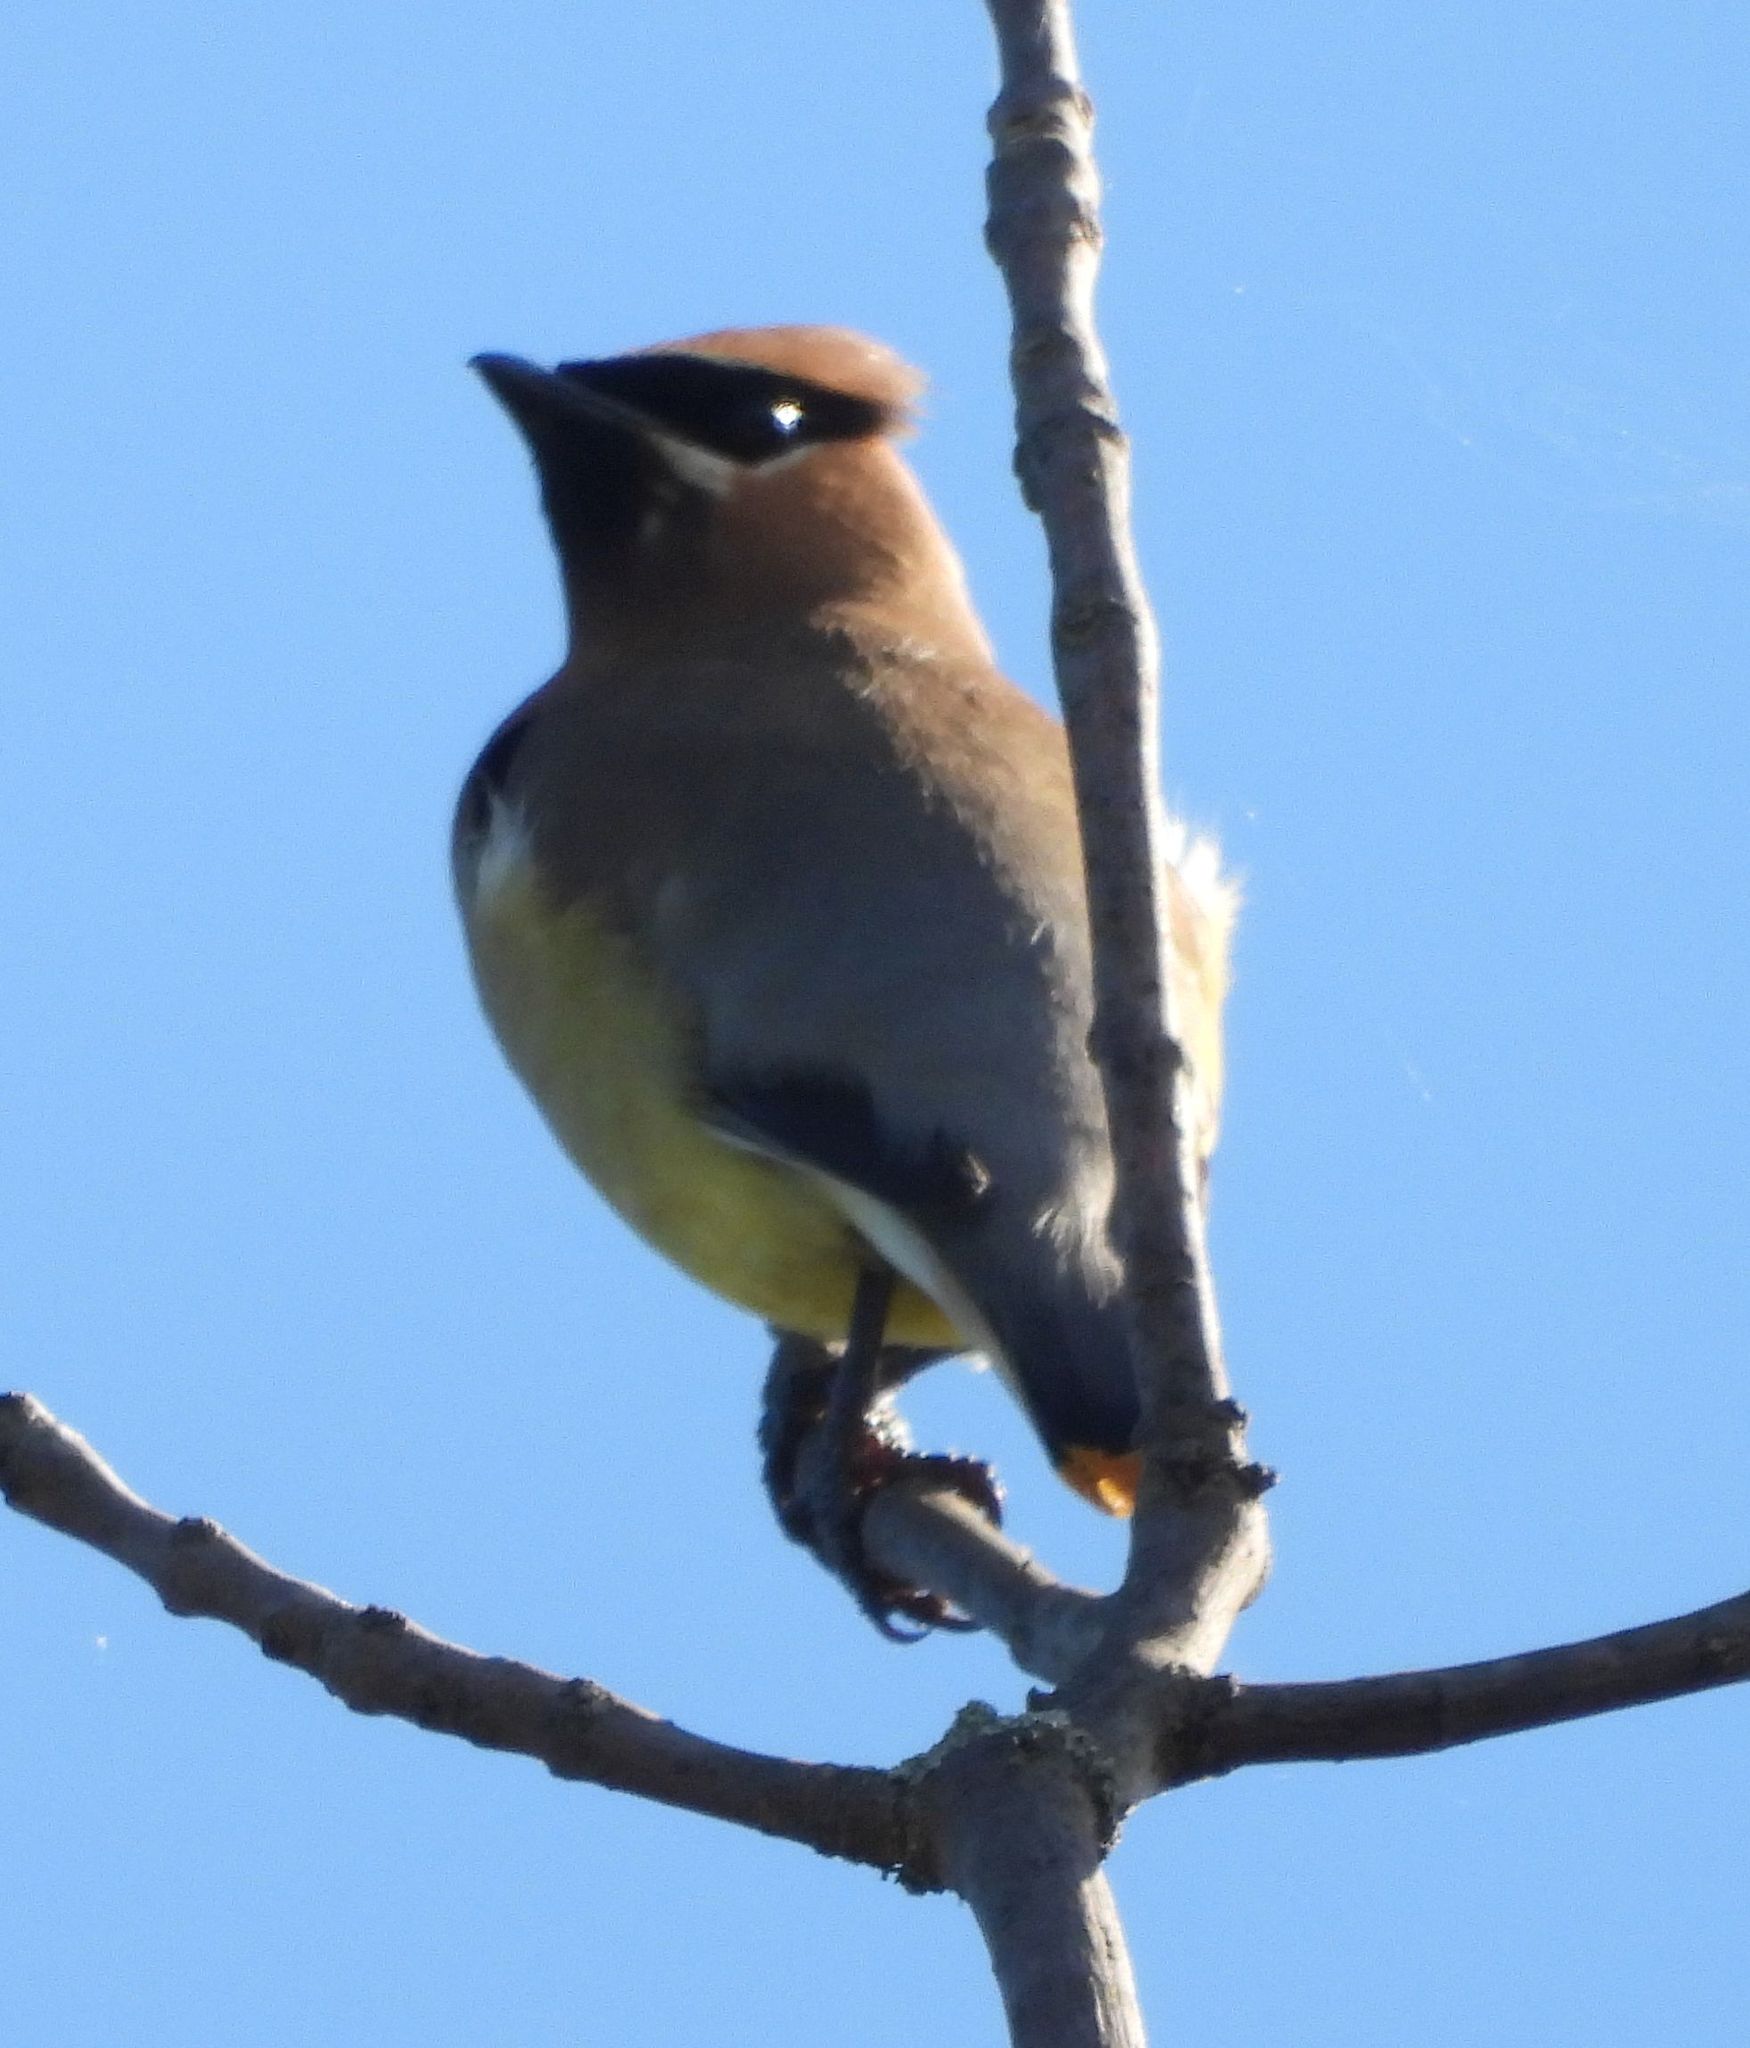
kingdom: Animalia
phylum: Chordata
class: Aves
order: Passeriformes
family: Bombycillidae
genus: Bombycilla
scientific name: Bombycilla cedrorum
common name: Cedar waxwing
